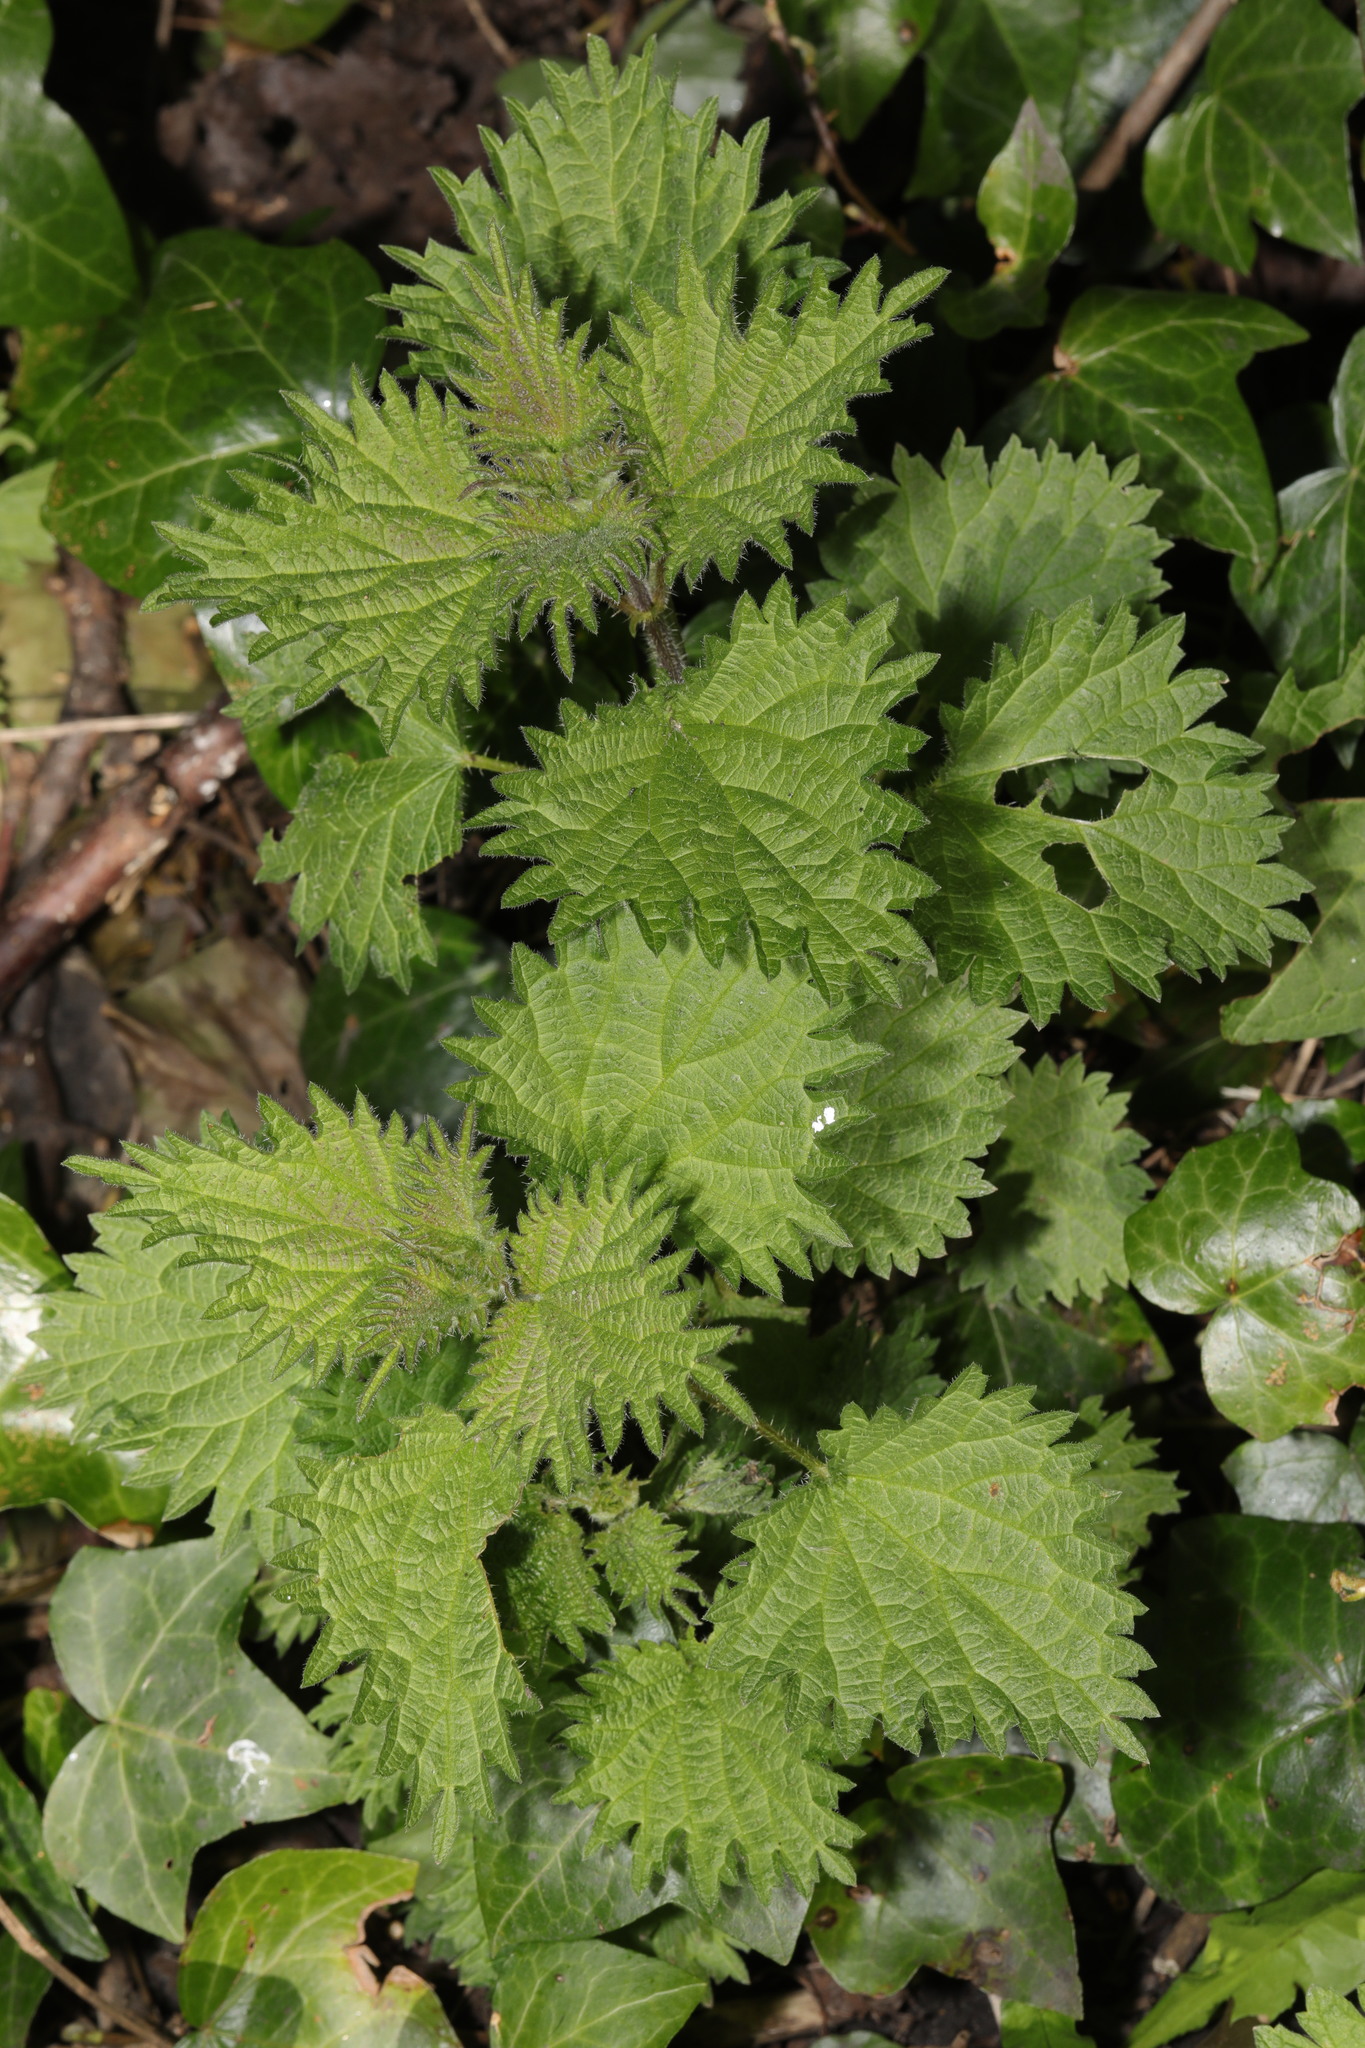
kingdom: Plantae
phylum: Tracheophyta
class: Magnoliopsida
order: Rosales
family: Urticaceae
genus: Urtica
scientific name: Urtica dioica
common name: Common nettle
